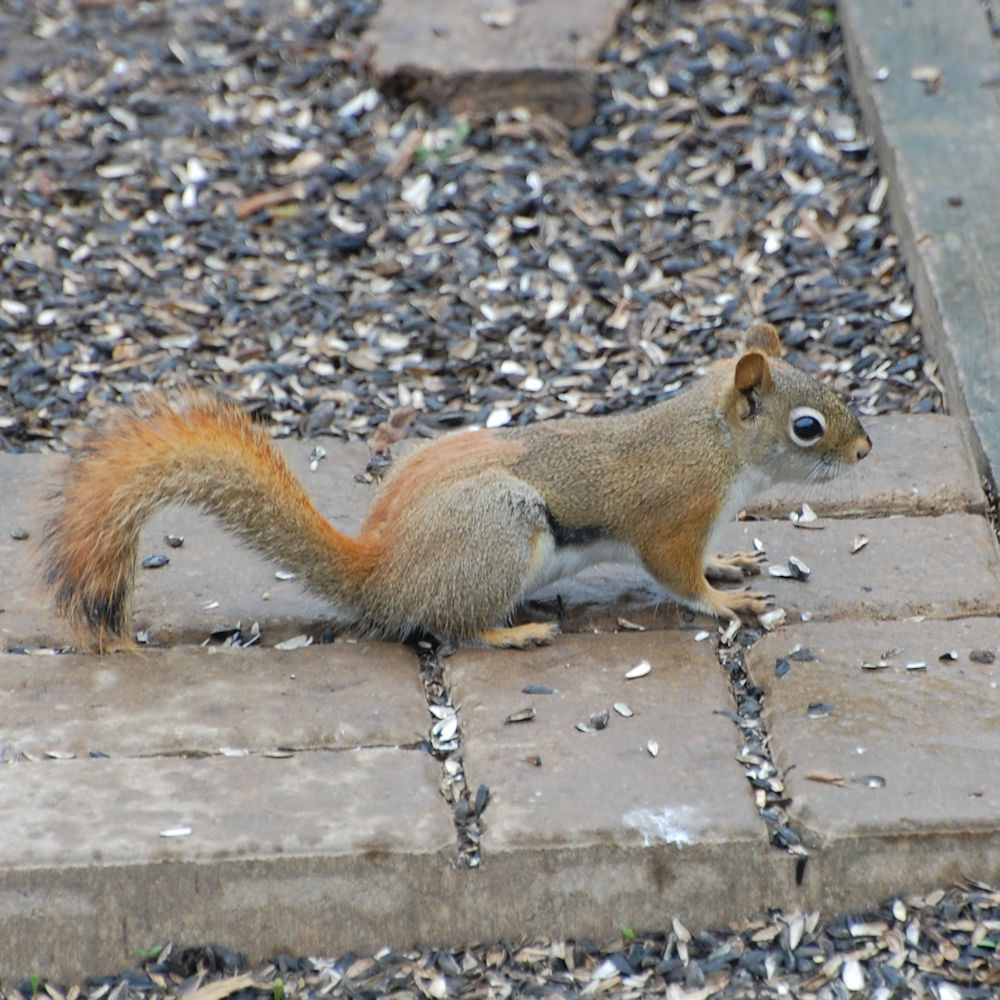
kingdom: Animalia
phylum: Chordata
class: Mammalia
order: Rodentia
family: Sciuridae
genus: Tamiasciurus
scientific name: Tamiasciurus hudsonicus
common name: Red squirrel
